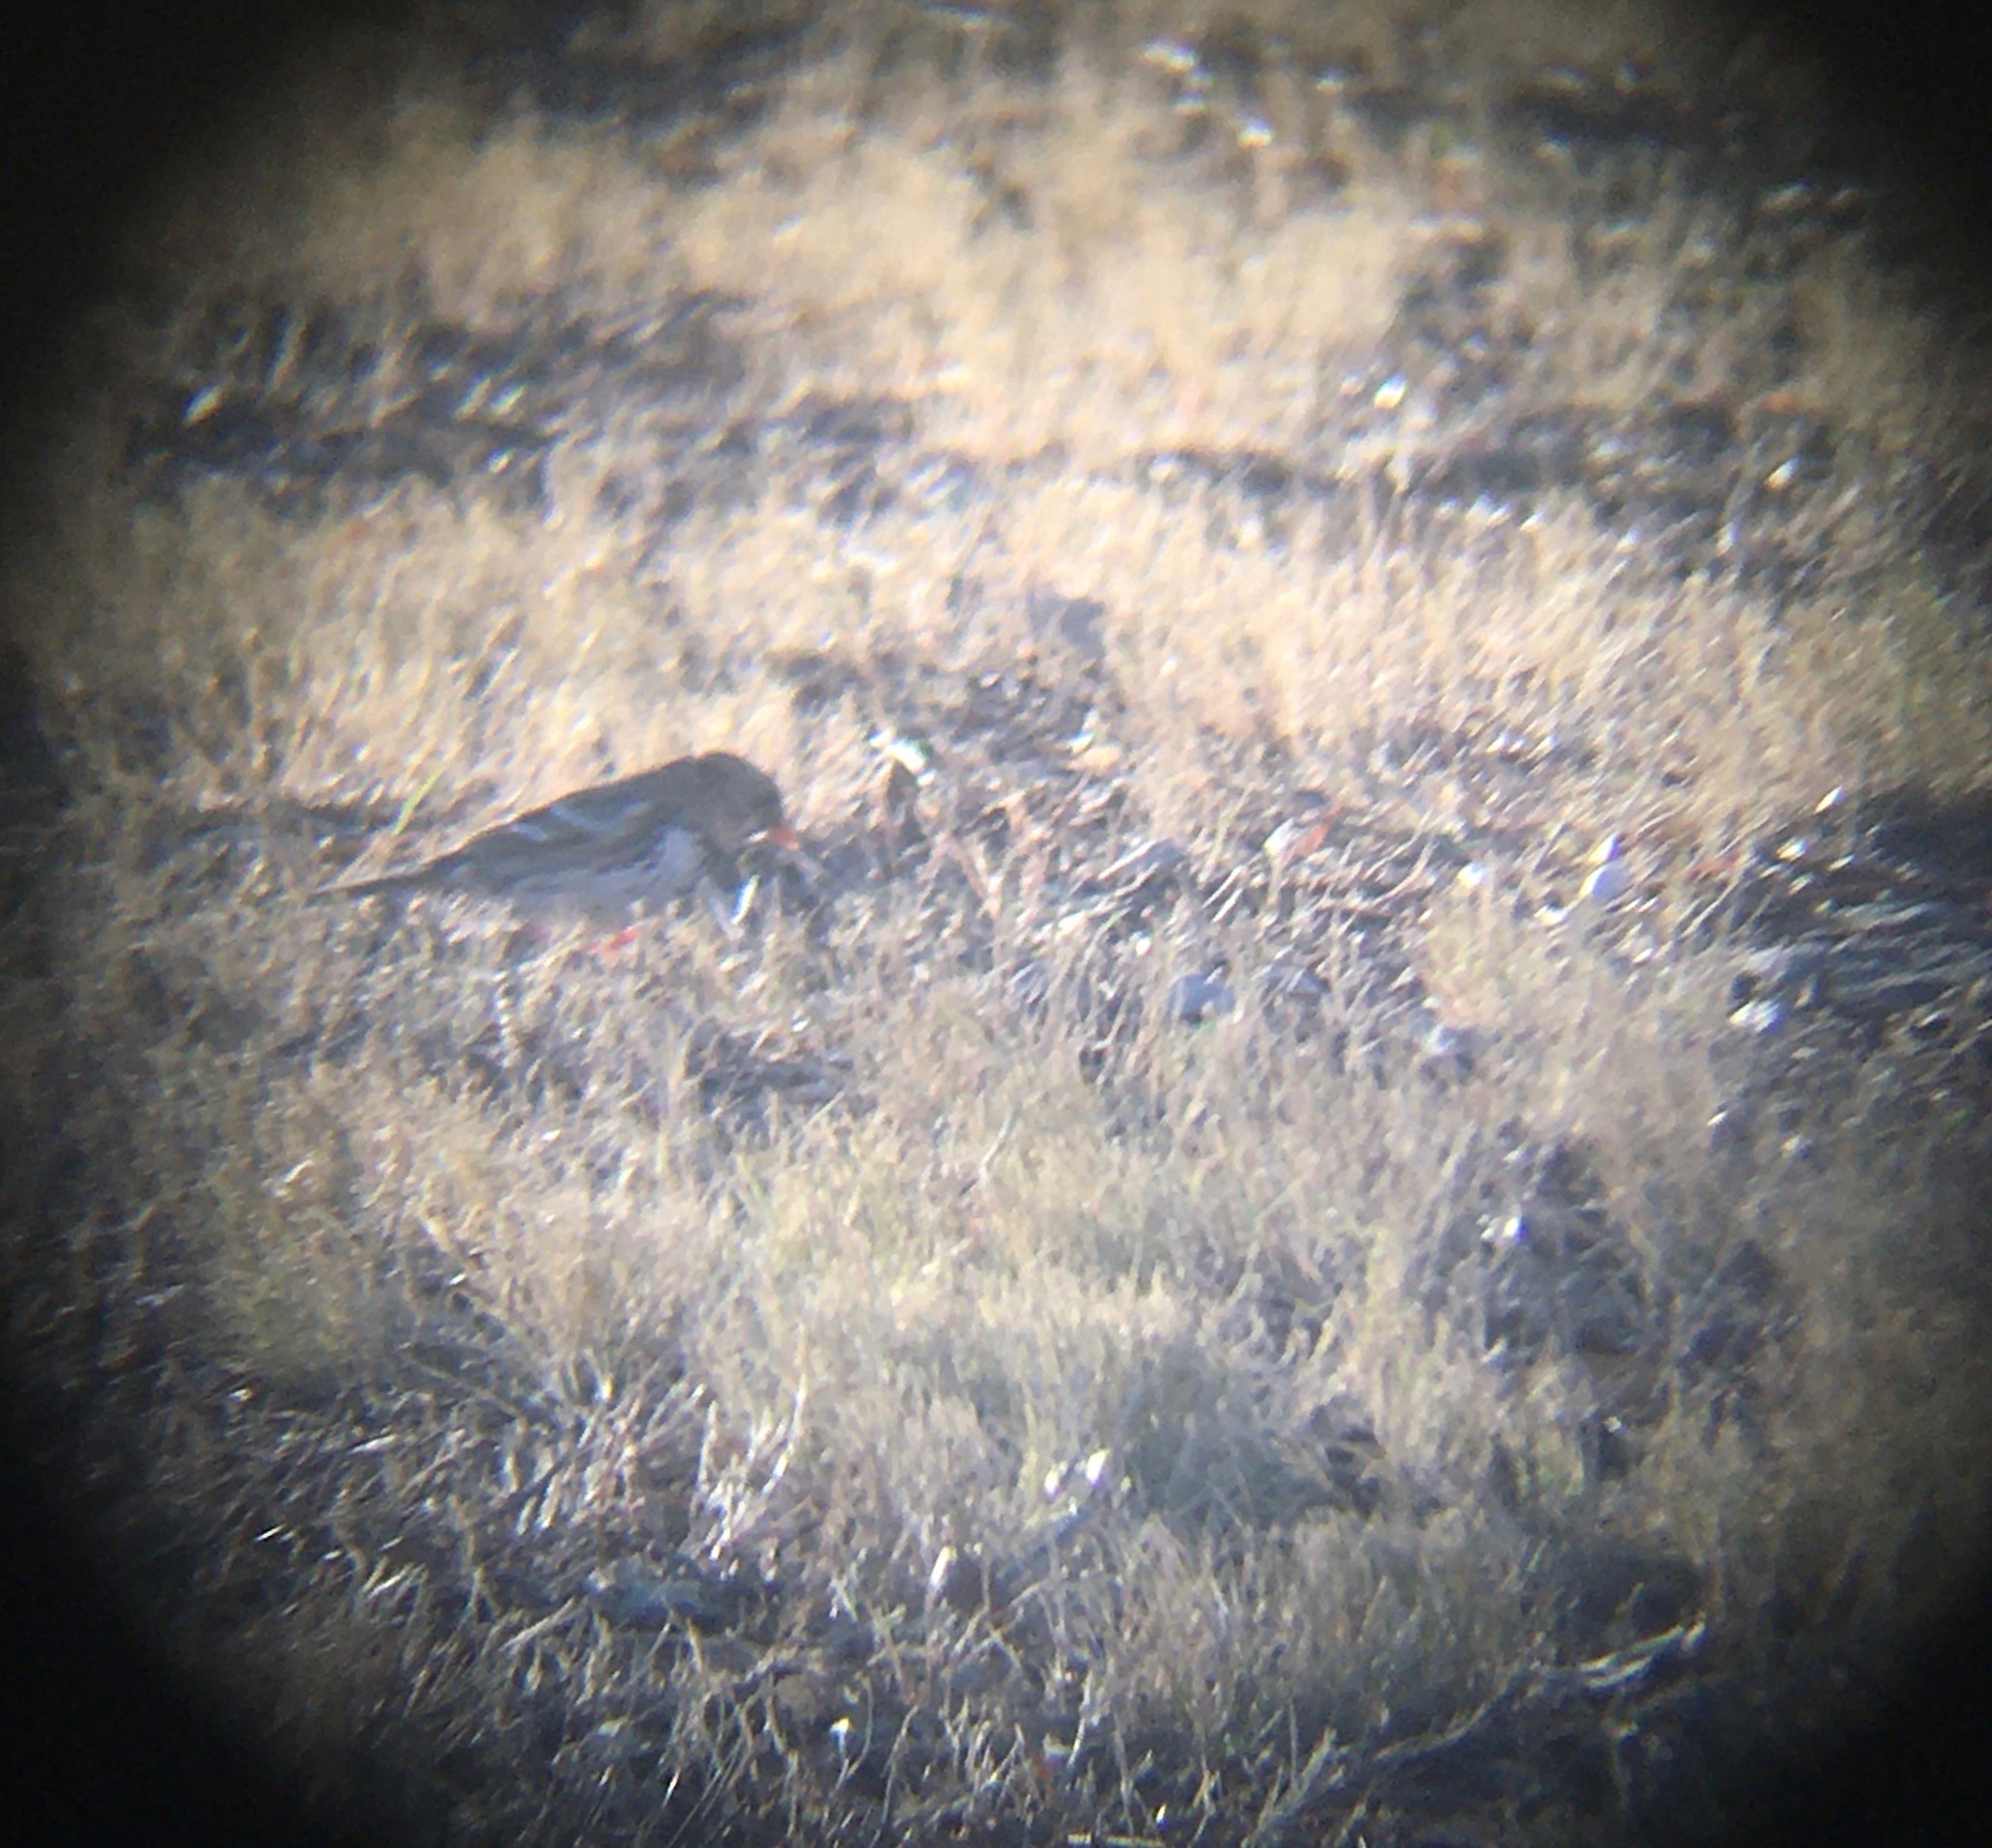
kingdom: Animalia
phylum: Chordata
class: Aves
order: Passeriformes
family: Passerellidae
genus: Zonotrichia
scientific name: Zonotrichia querula
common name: Harris's sparrow
